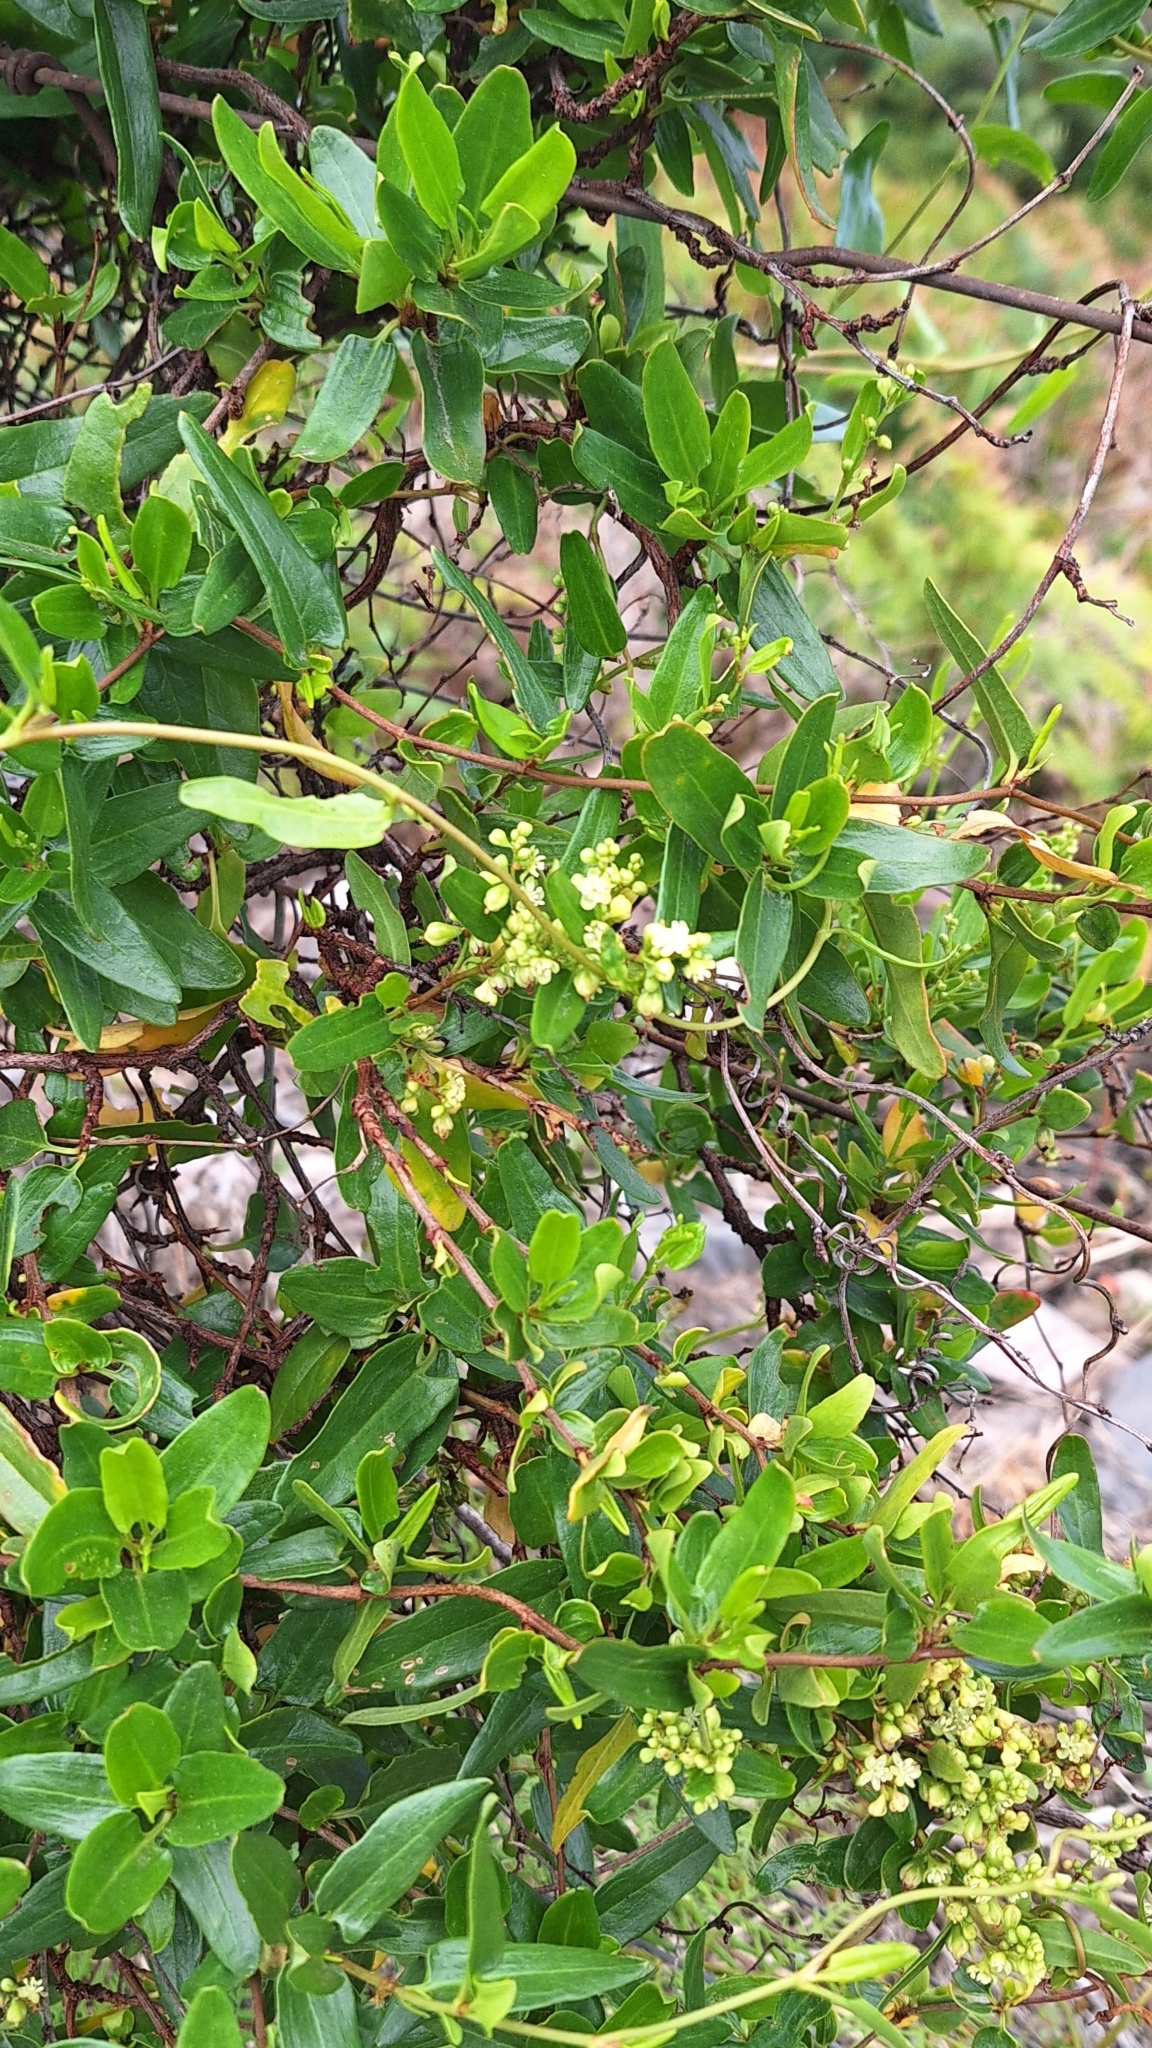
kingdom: Plantae
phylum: Tracheophyta
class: Magnoliopsida
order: Caryophyllales
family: Polygonaceae
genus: Muehlenbeckia
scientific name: Muehlenbeckia gunnii
